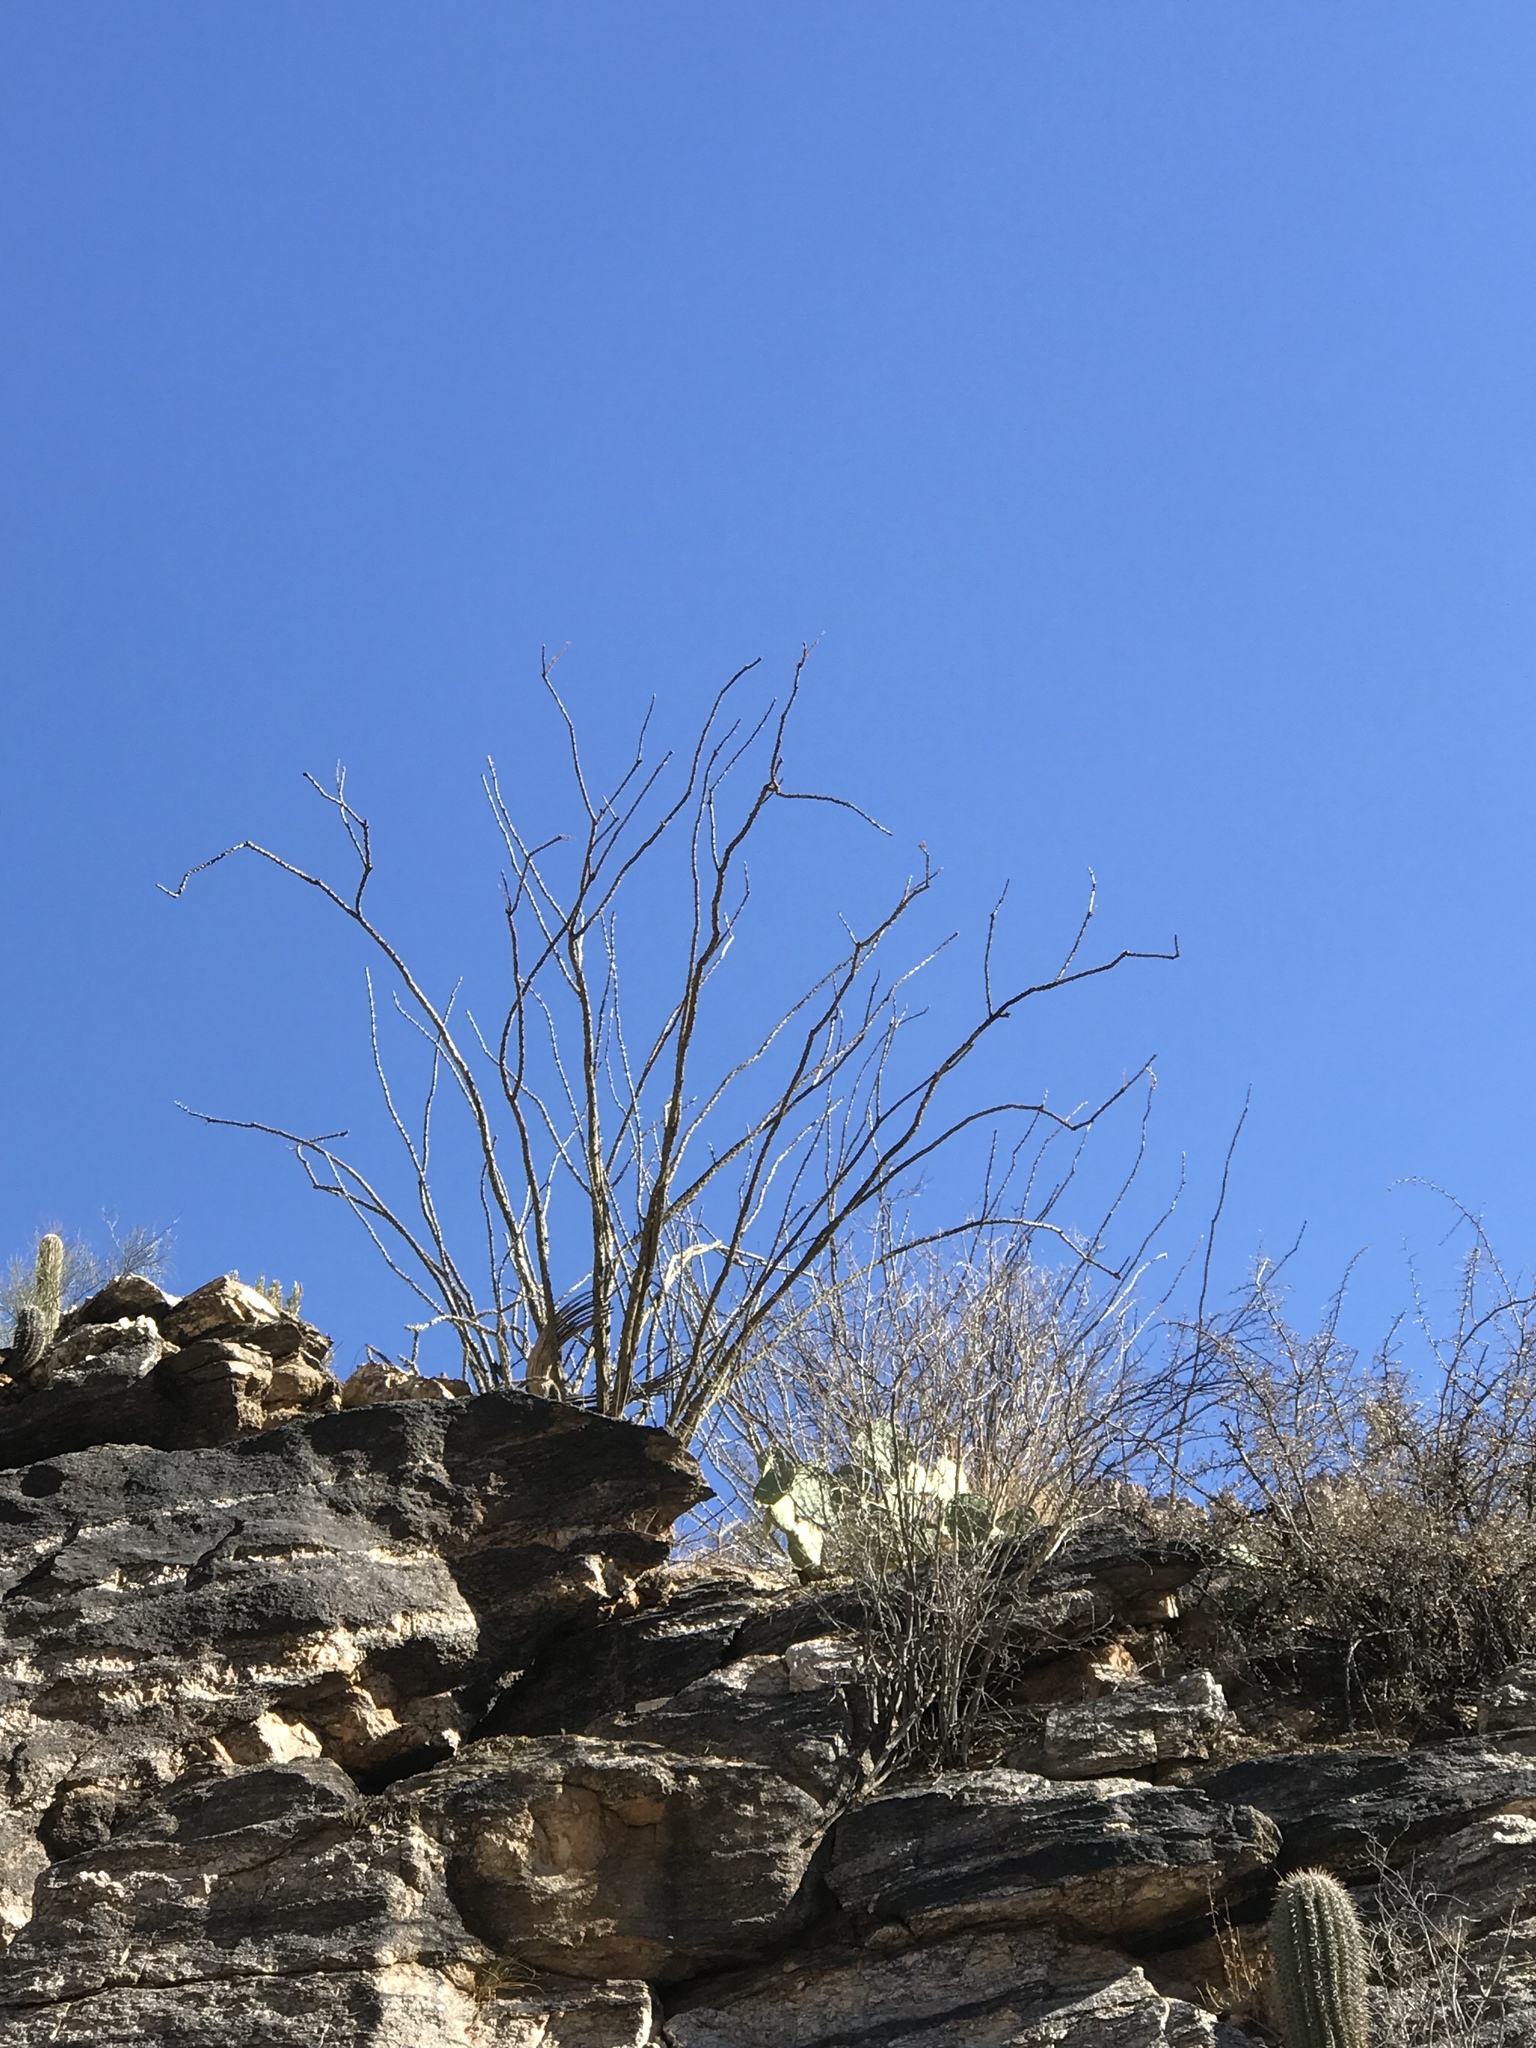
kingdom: Plantae
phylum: Tracheophyta
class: Magnoliopsida
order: Ericales
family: Fouquieriaceae
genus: Fouquieria
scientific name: Fouquieria splendens
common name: Vine-cactus
